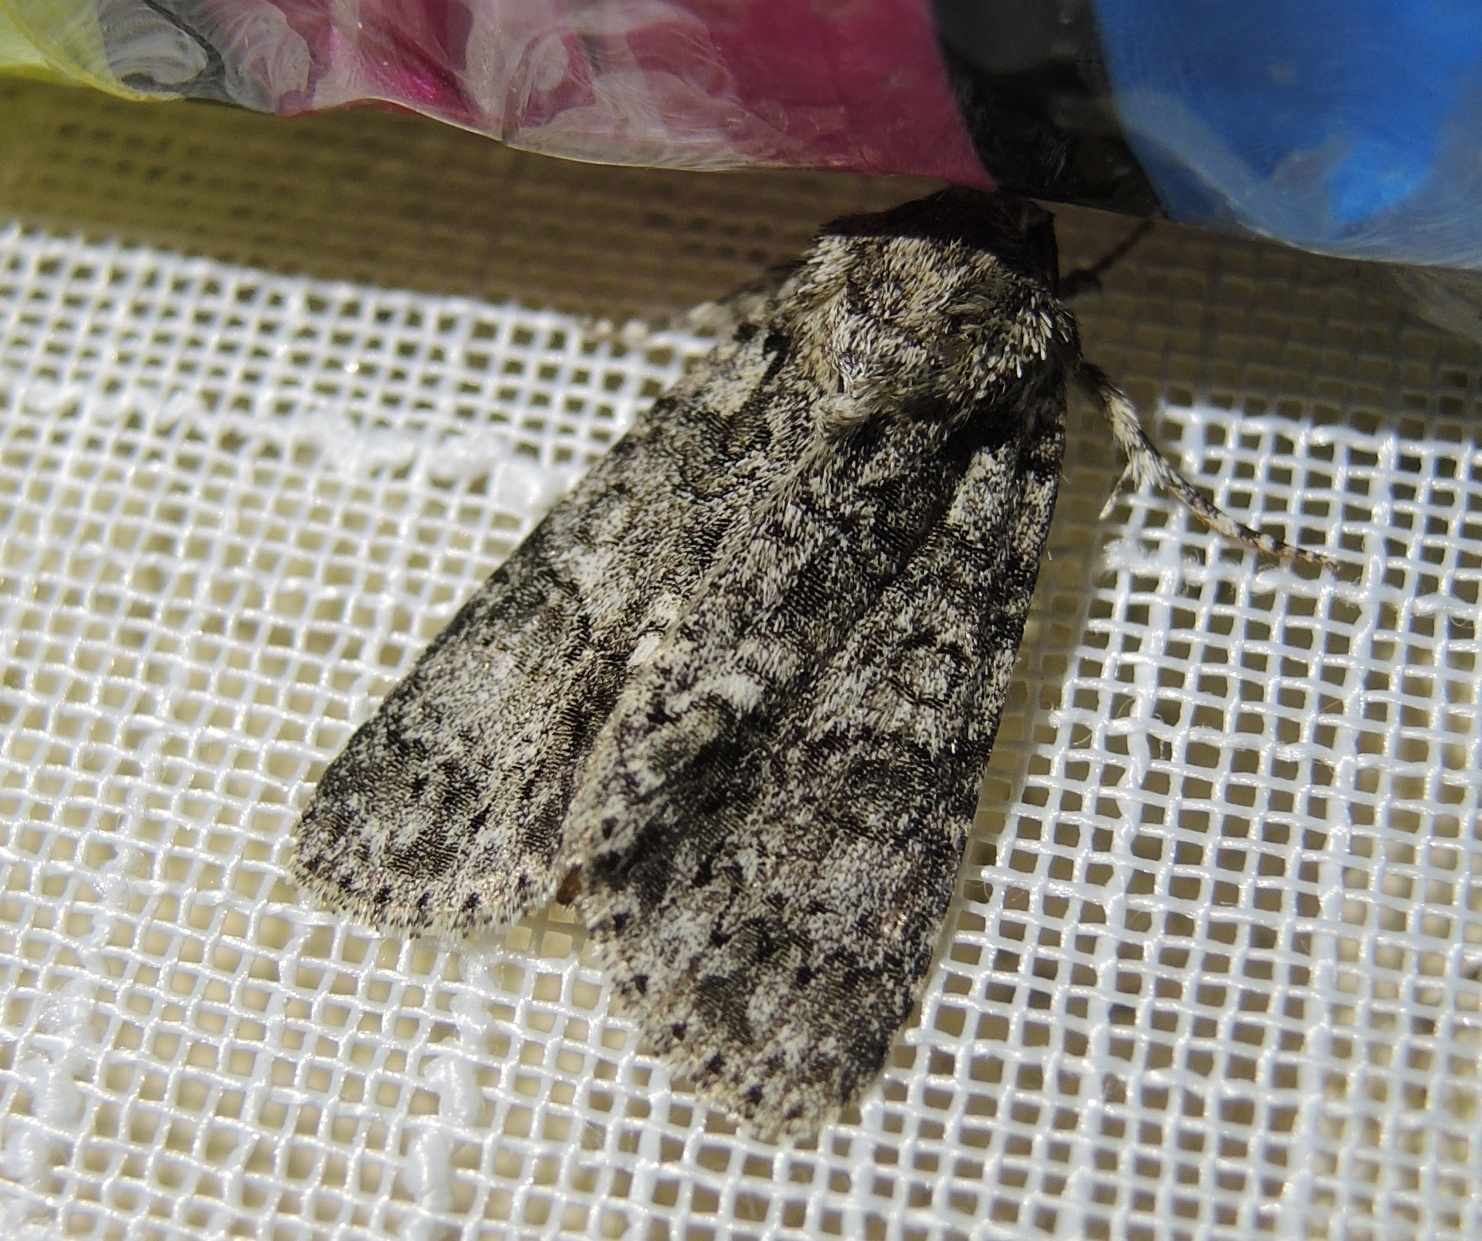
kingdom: Animalia
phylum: Arthropoda
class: Insecta
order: Lepidoptera
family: Noctuidae
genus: Acronicta
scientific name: Acronicta rumicis
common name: Knot grass
